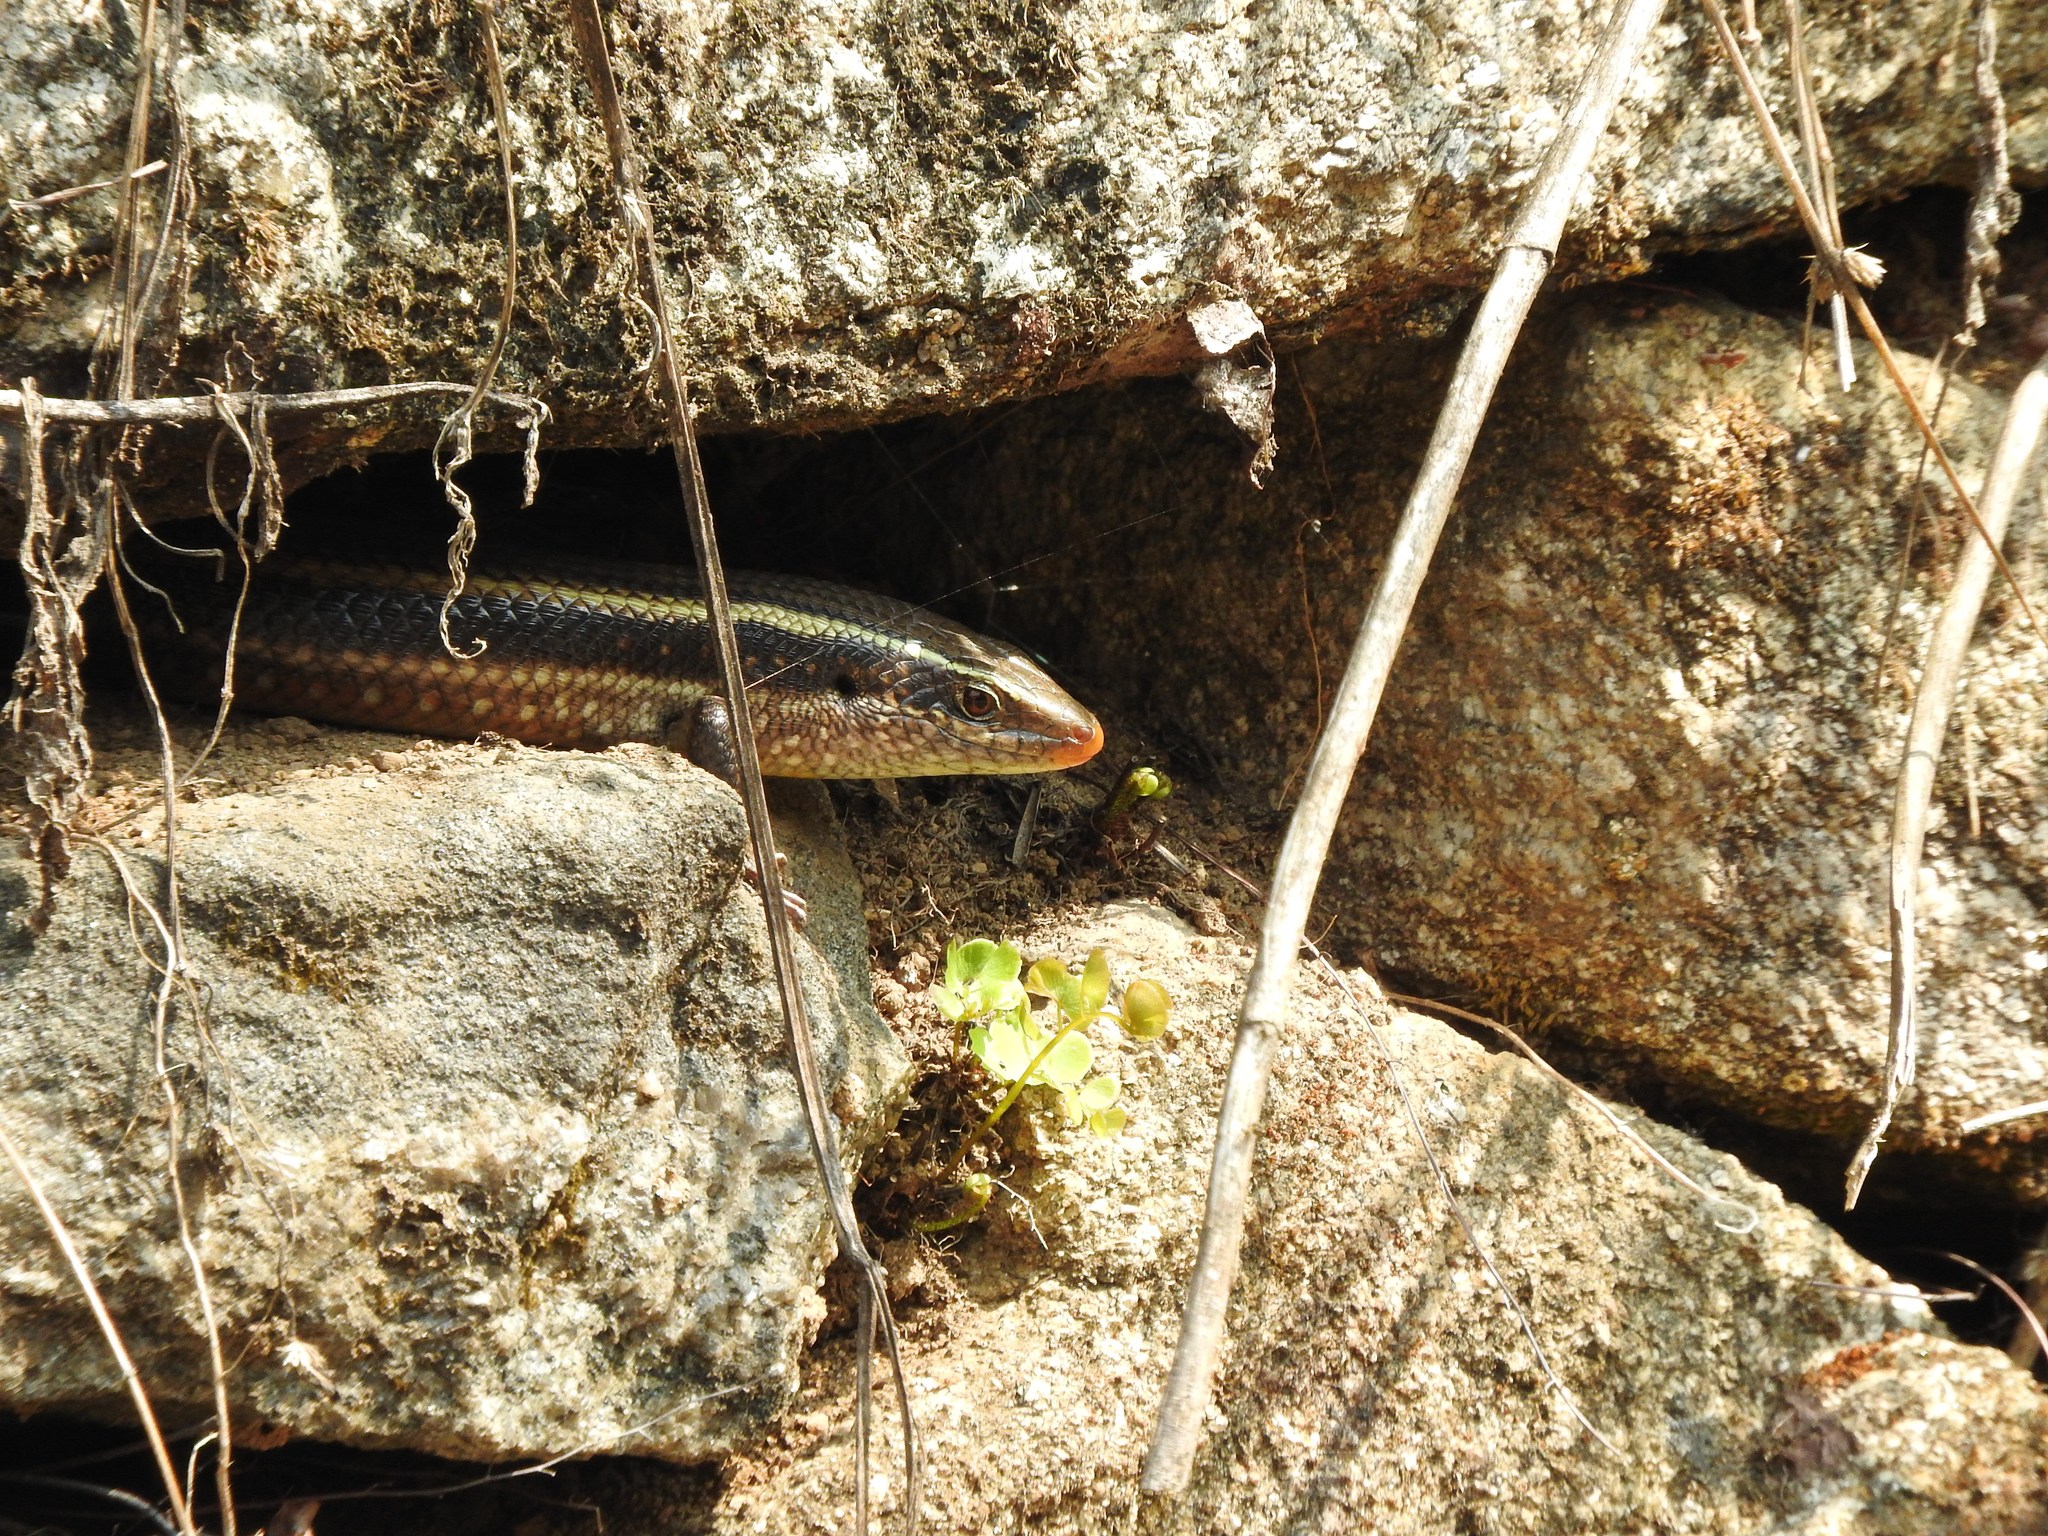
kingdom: Animalia
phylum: Chordata
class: Squamata
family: Scincidae
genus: Eutropis
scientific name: Eutropis carinata
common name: Keeled indian mabuya
